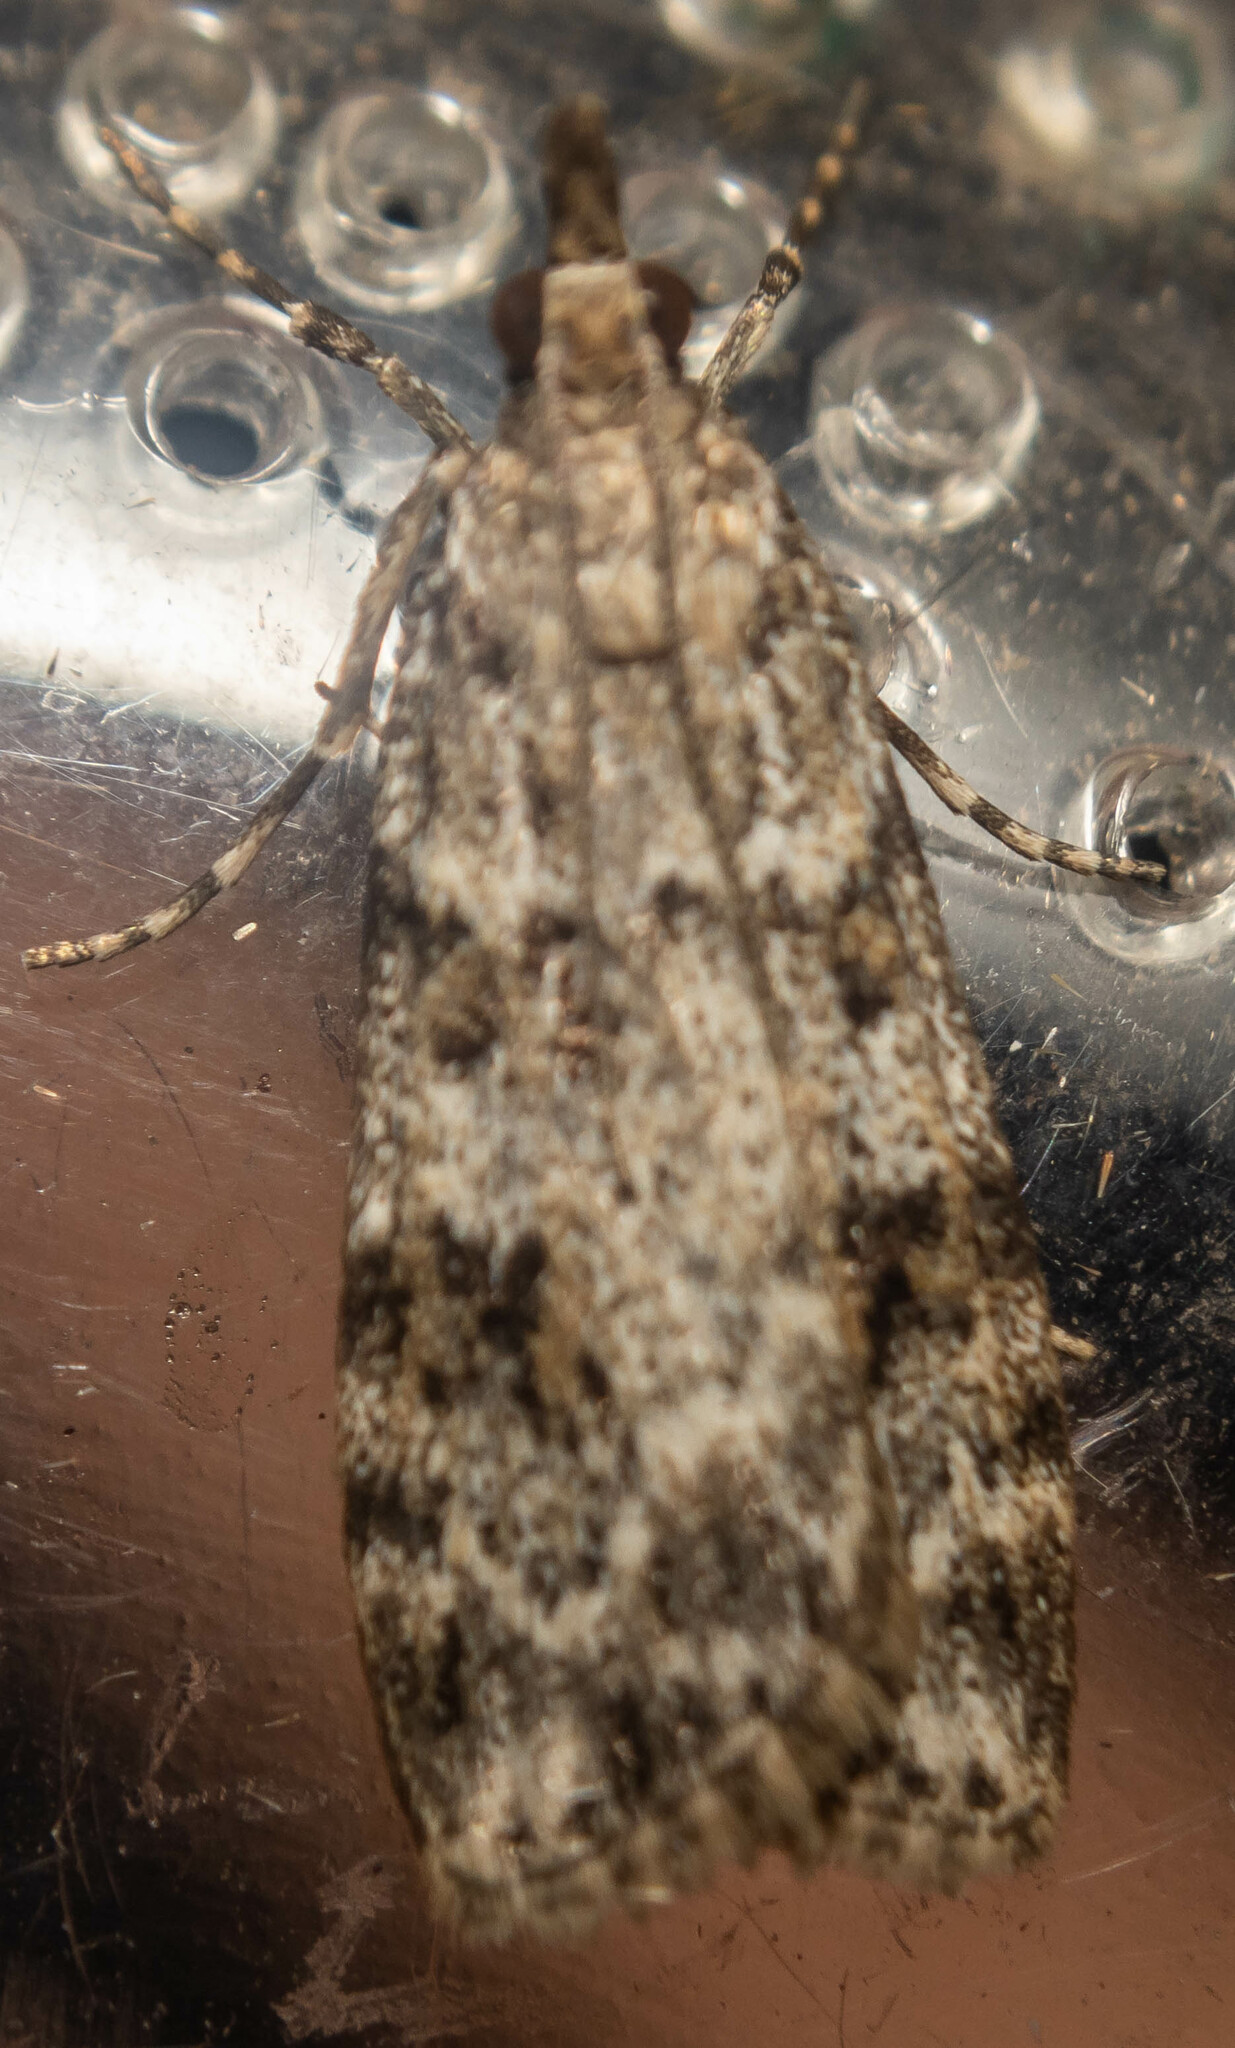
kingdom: Animalia
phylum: Arthropoda
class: Insecta
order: Lepidoptera
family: Crambidae
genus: Scoparia
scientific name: Scoparia ambigualis
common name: Common grey
